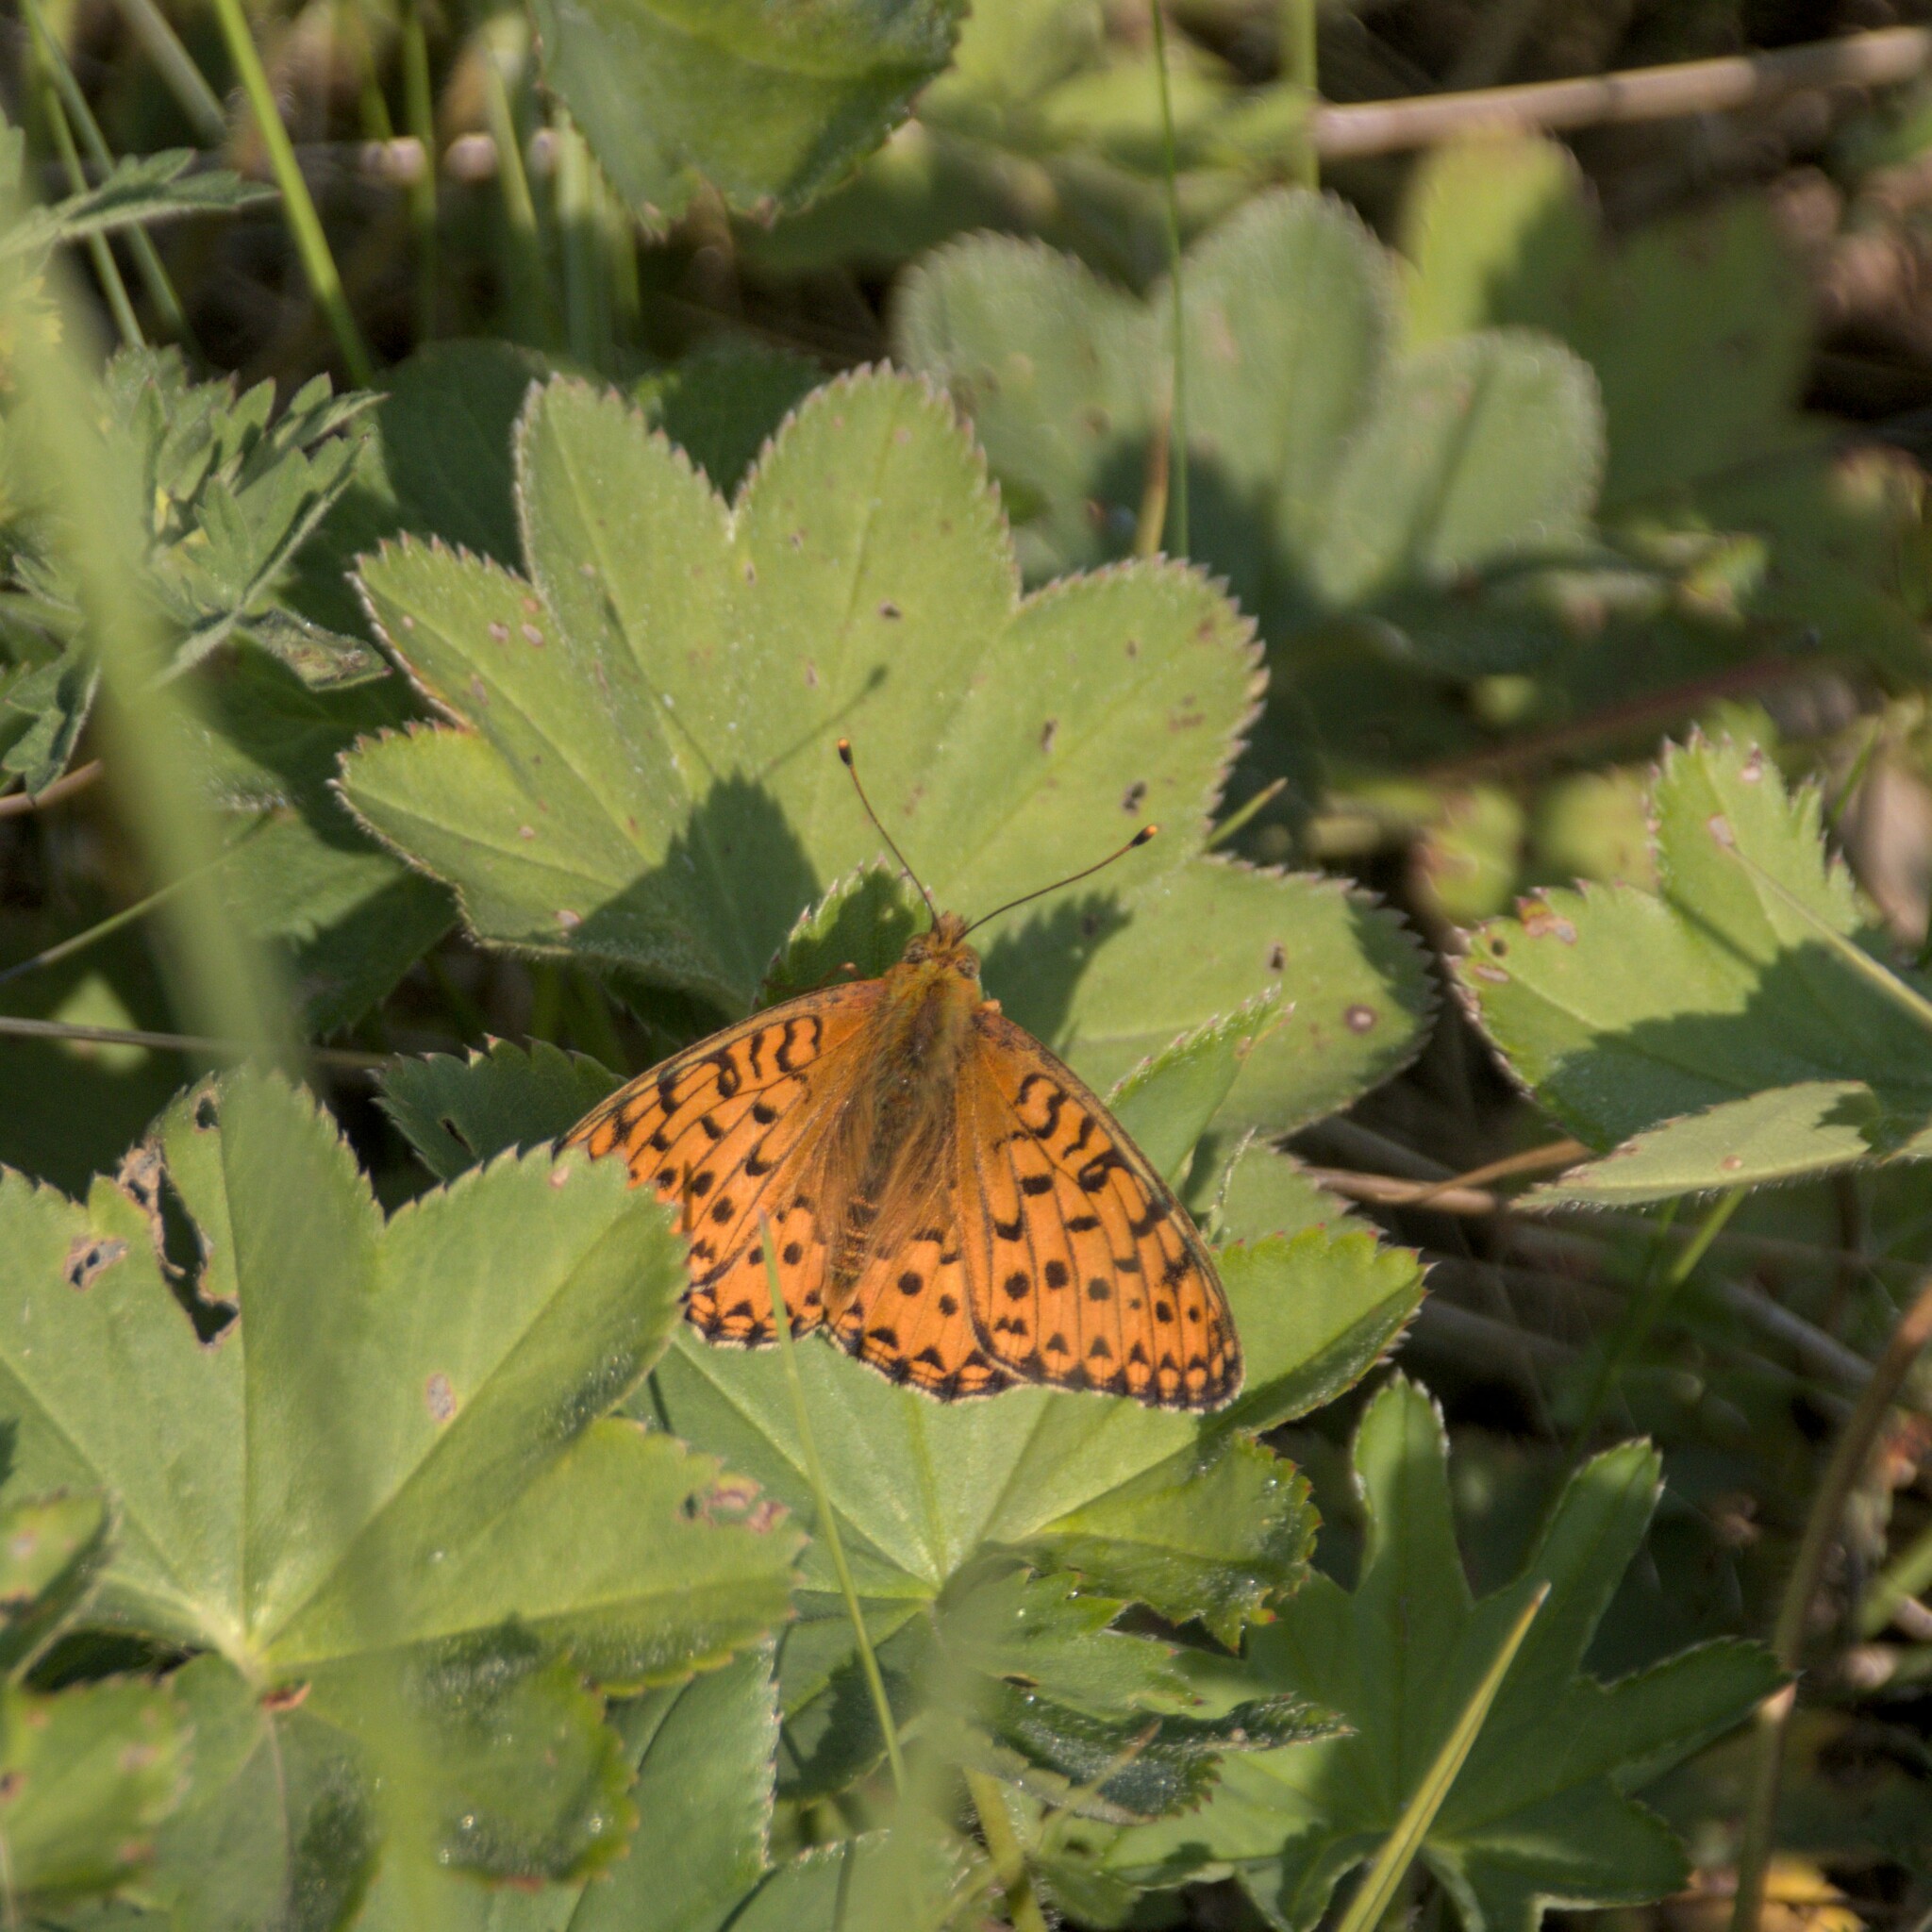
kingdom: Animalia
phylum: Arthropoda
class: Insecta
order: Lepidoptera
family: Nymphalidae
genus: Speyeria
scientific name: Speyeria aglaja
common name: Dark green fritillary
